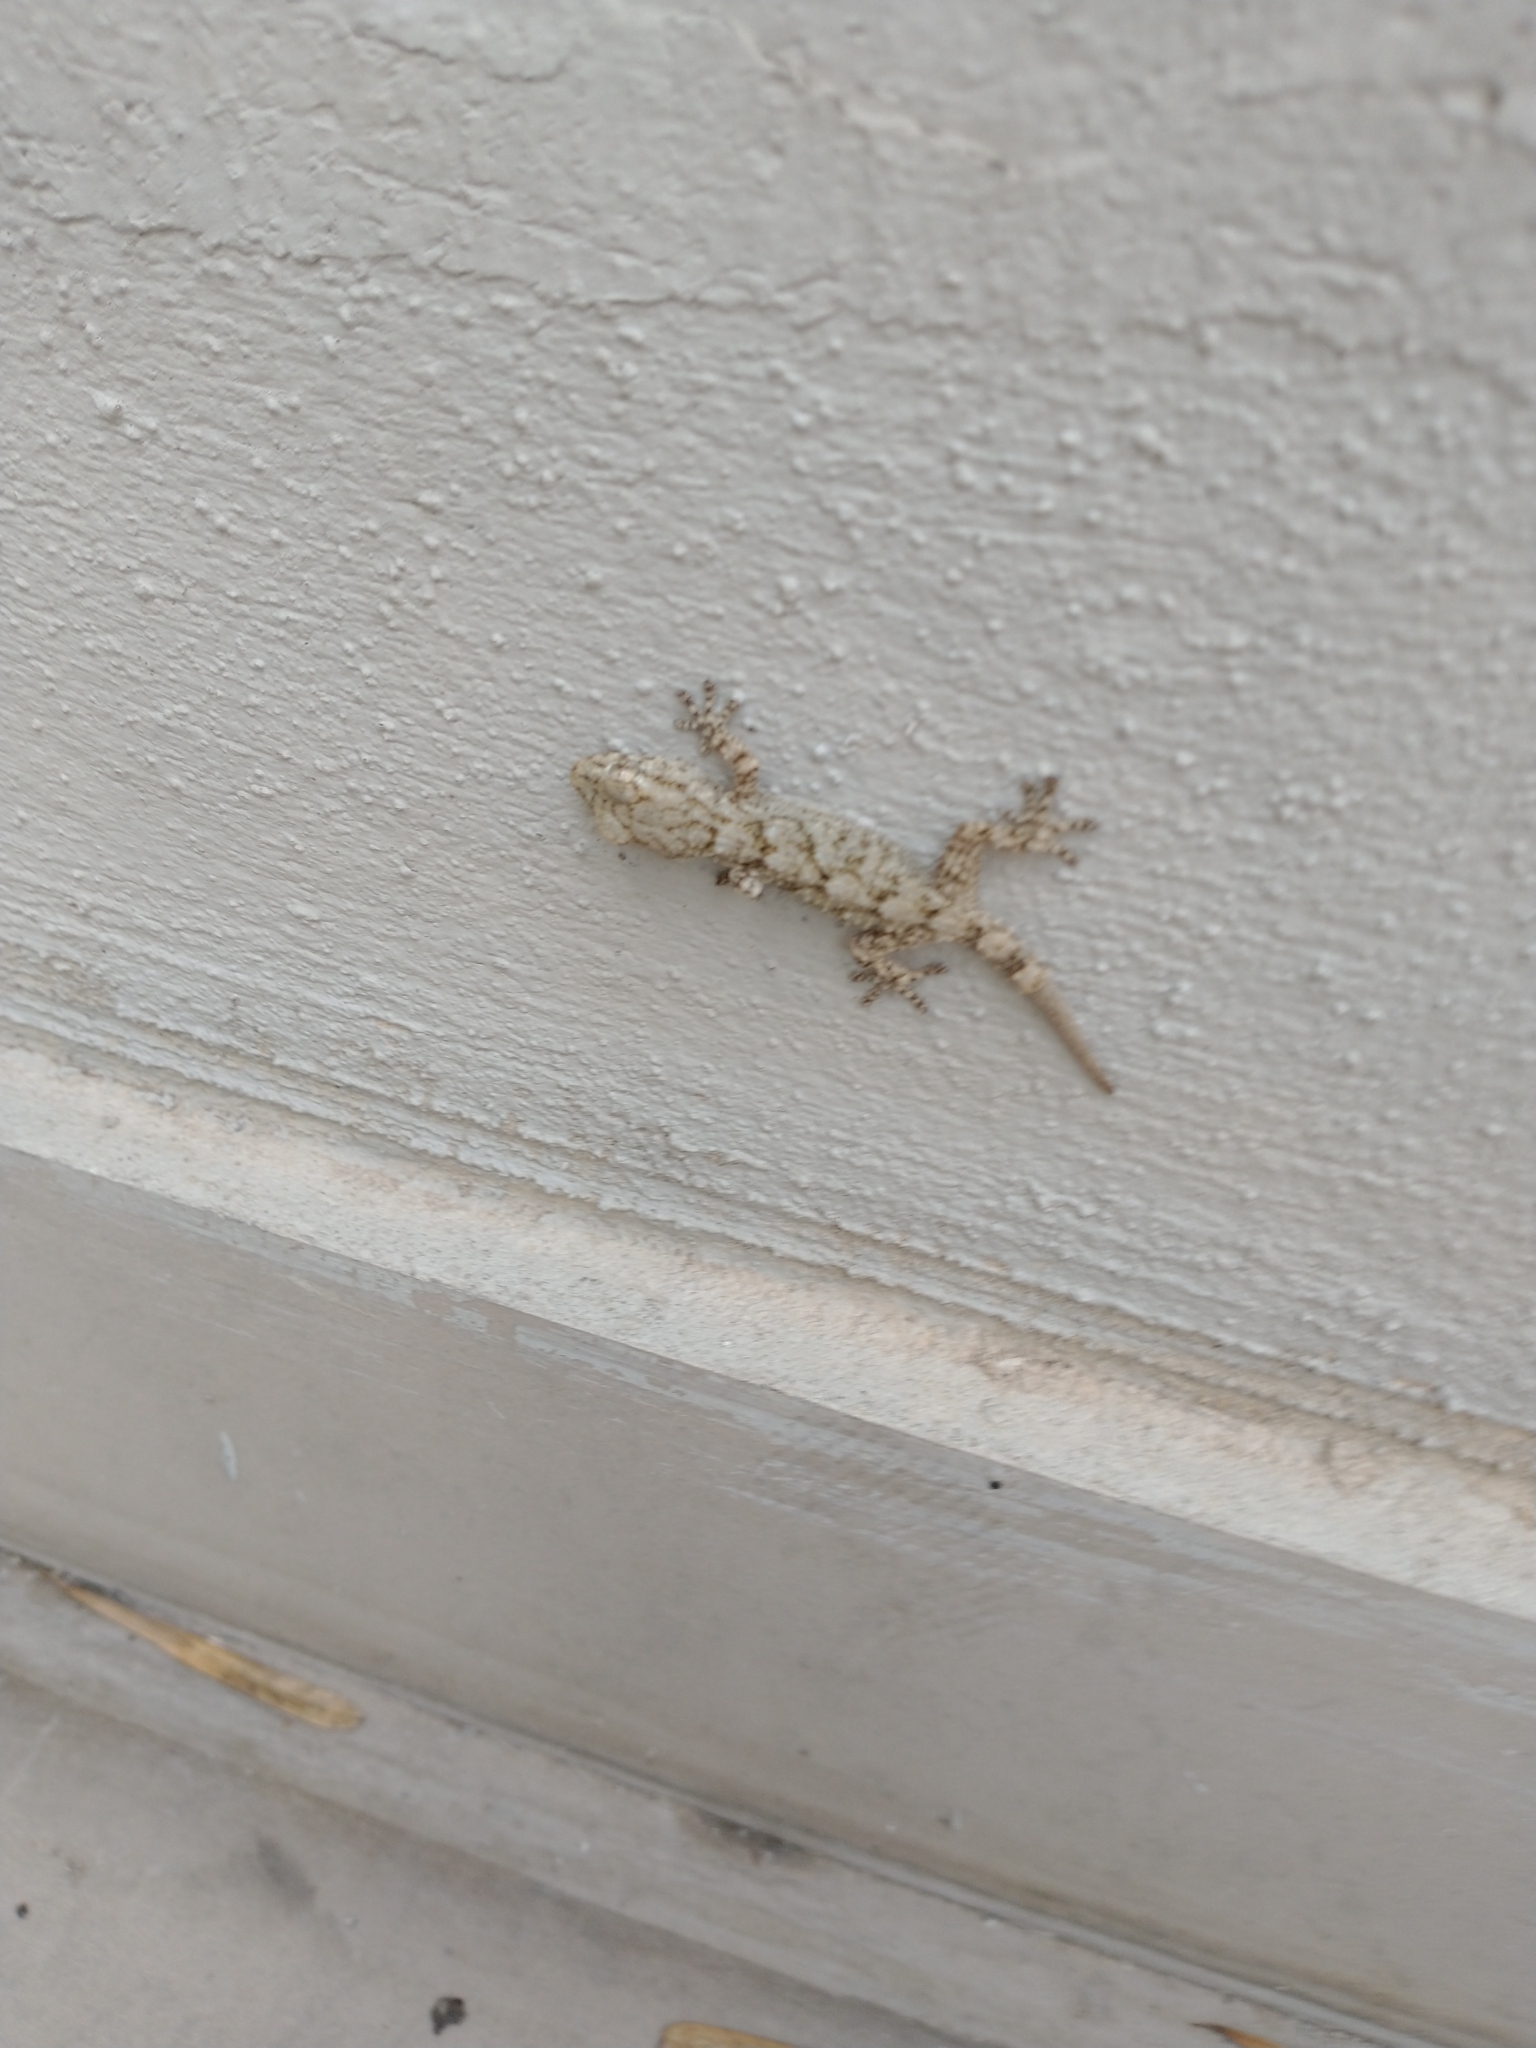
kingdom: Animalia
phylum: Chordata
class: Squamata
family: Phyllodactylidae
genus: Tarentola
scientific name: Tarentola mauritanica
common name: Moorish gecko
